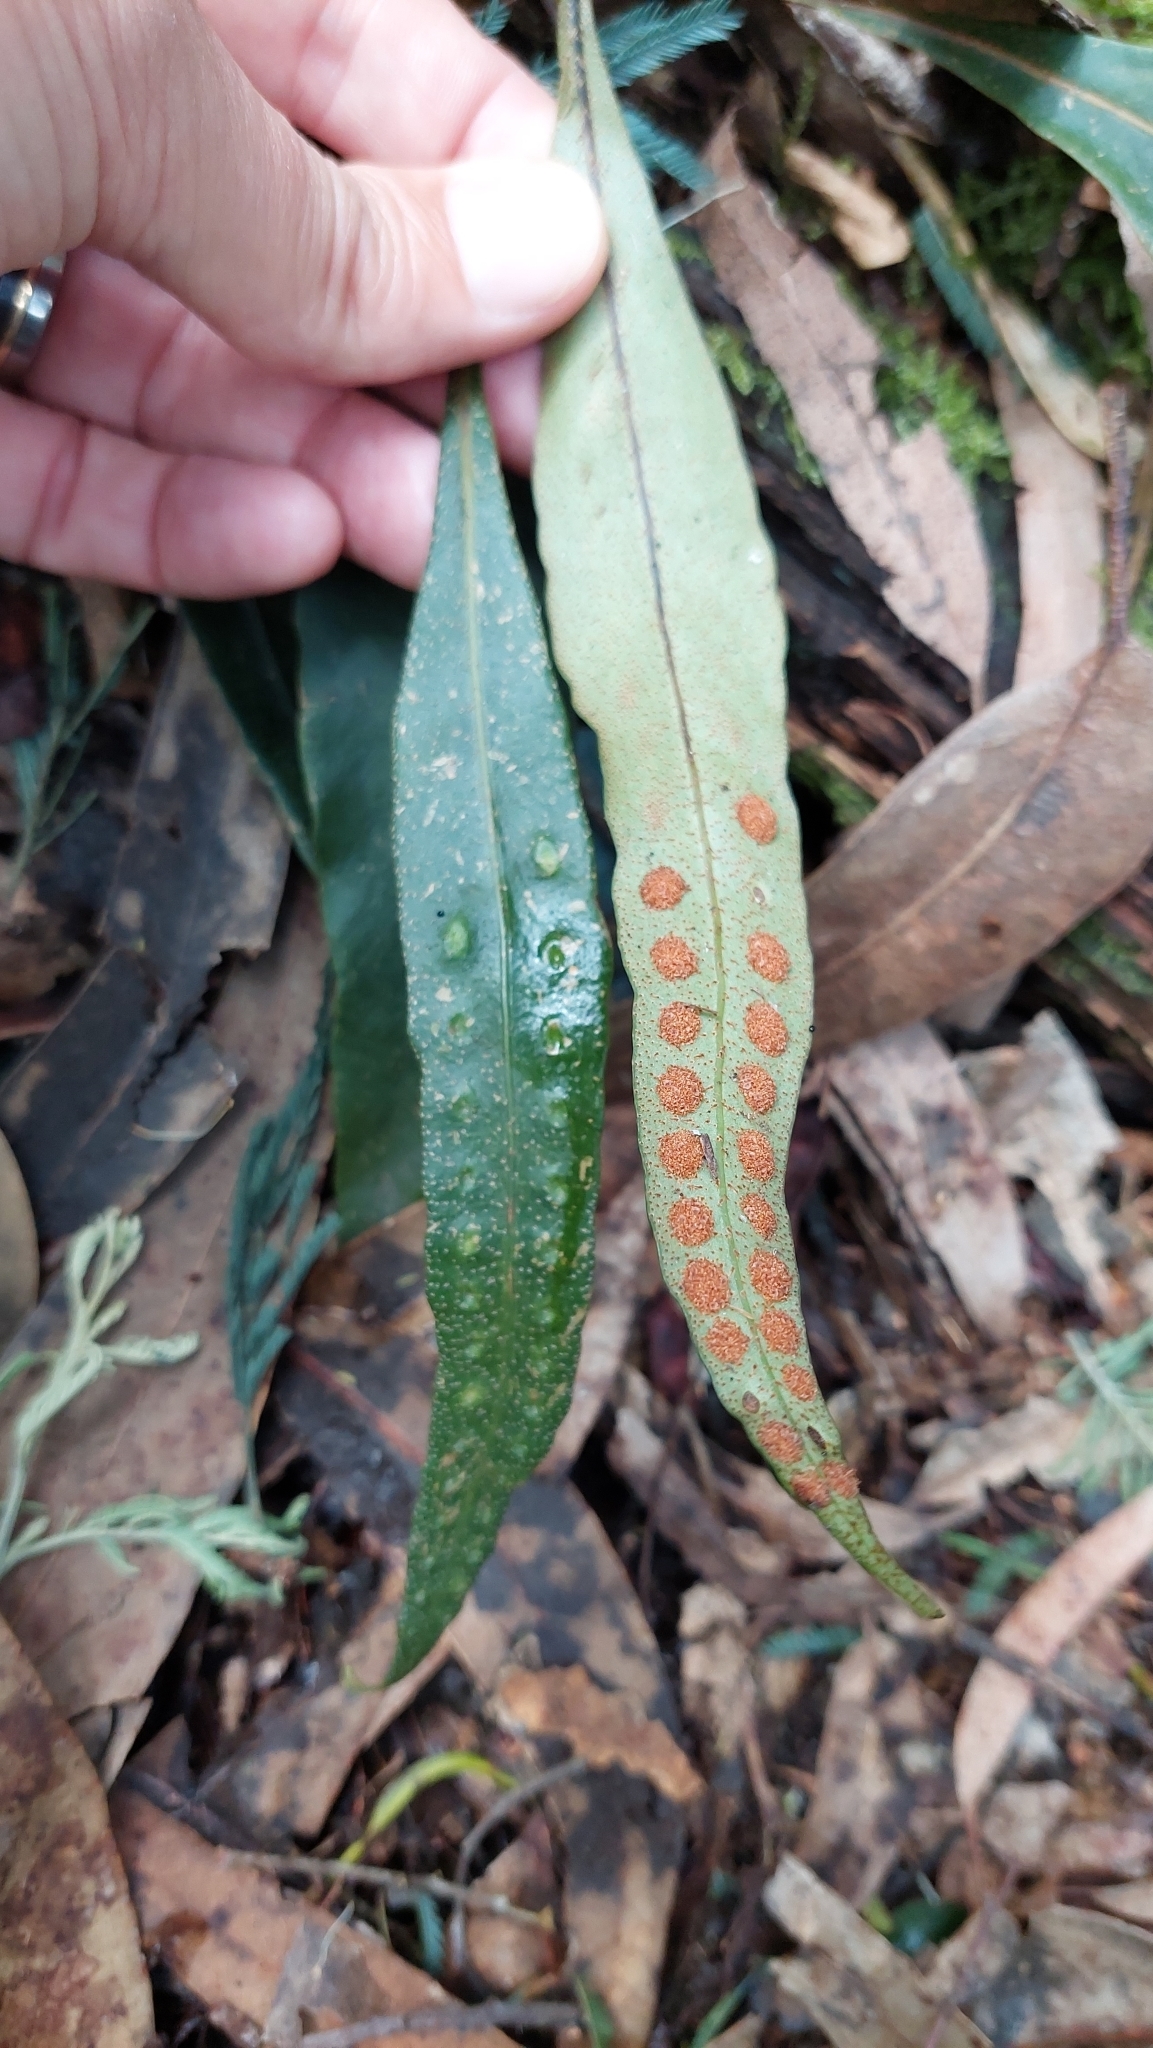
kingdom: Plantae
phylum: Tracheophyta
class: Polypodiopsida
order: Polypodiales
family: Polypodiaceae
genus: Pleopeltis
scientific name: Pleopeltis macrocarpa
